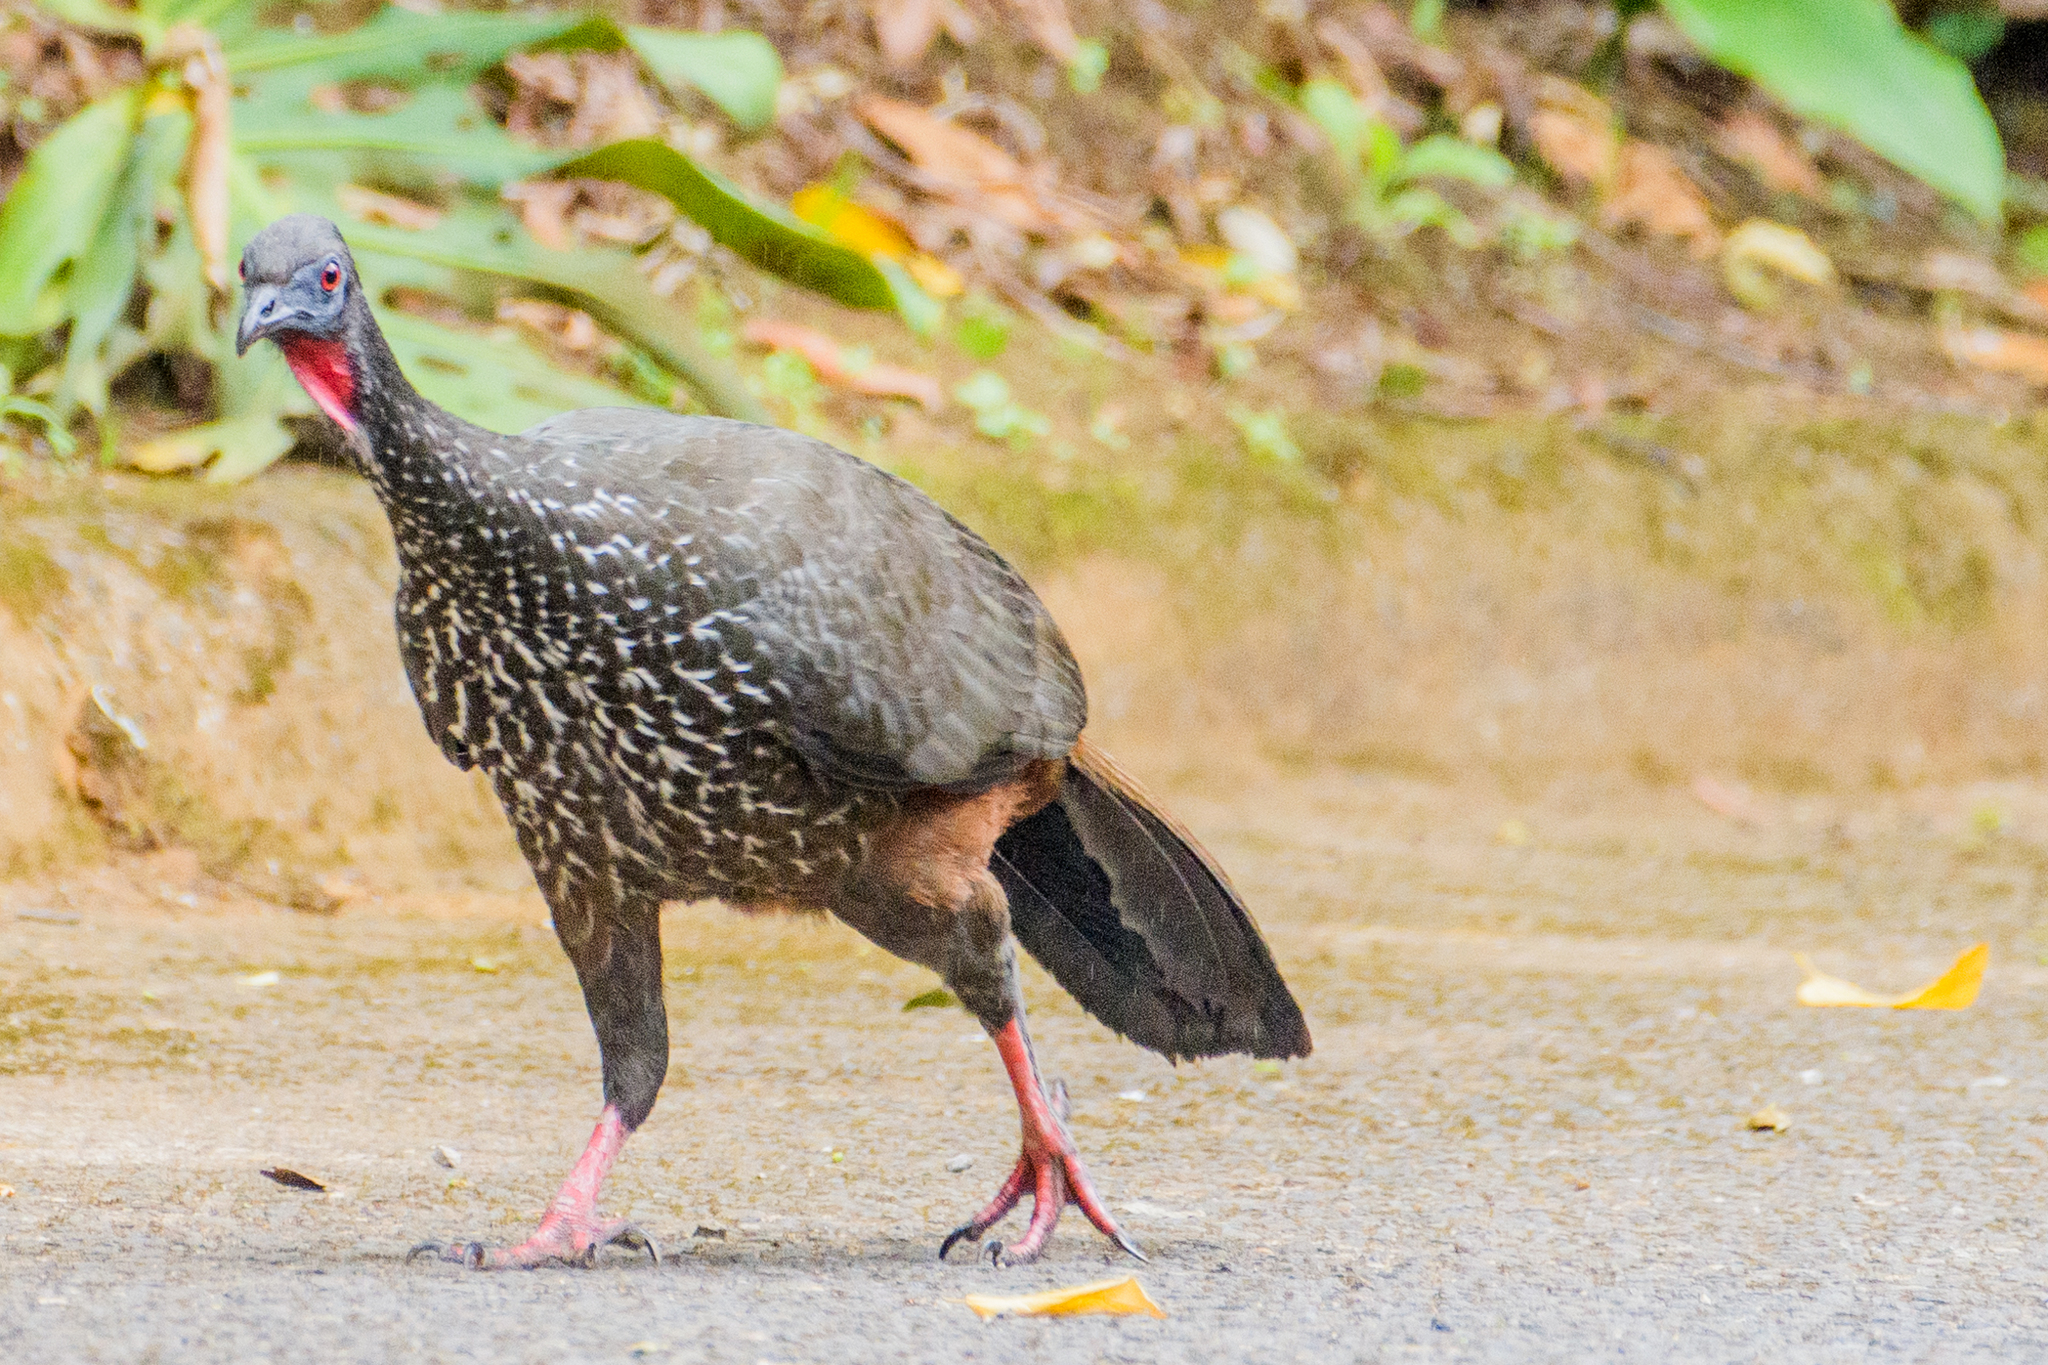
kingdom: Animalia
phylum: Chordata
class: Aves
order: Galliformes
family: Cracidae
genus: Penelope
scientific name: Penelope purpurascens
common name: Crested guan
